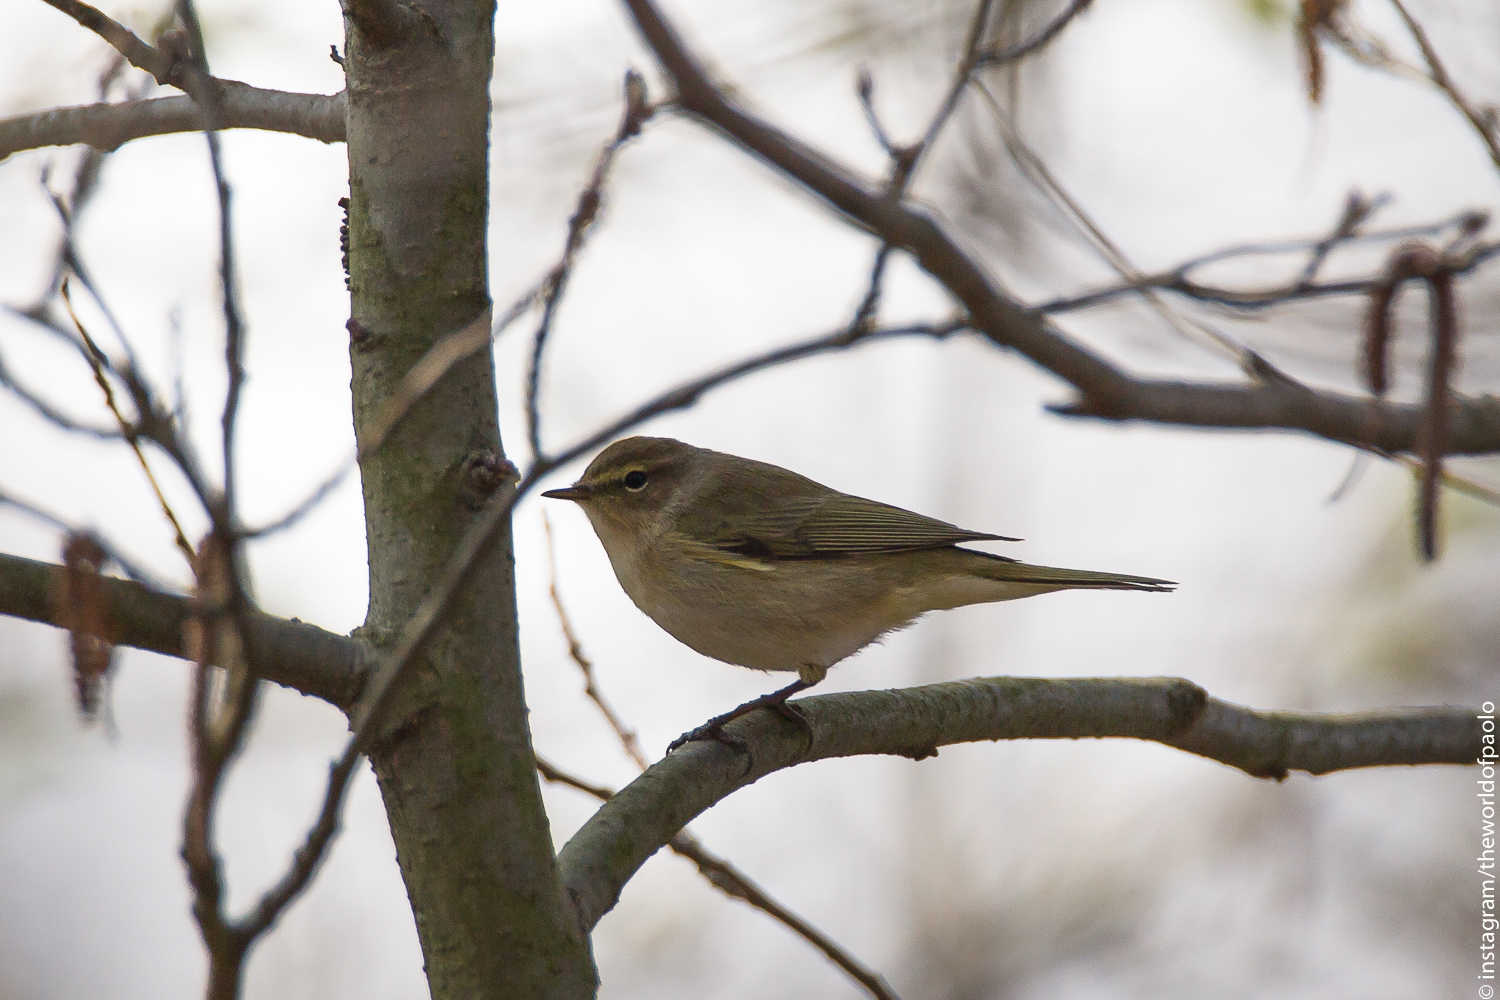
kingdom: Animalia
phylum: Chordata
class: Aves
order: Passeriformes
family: Phylloscopidae
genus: Phylloscopus
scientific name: Phylloscopus collybita
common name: Common chiffchaff
